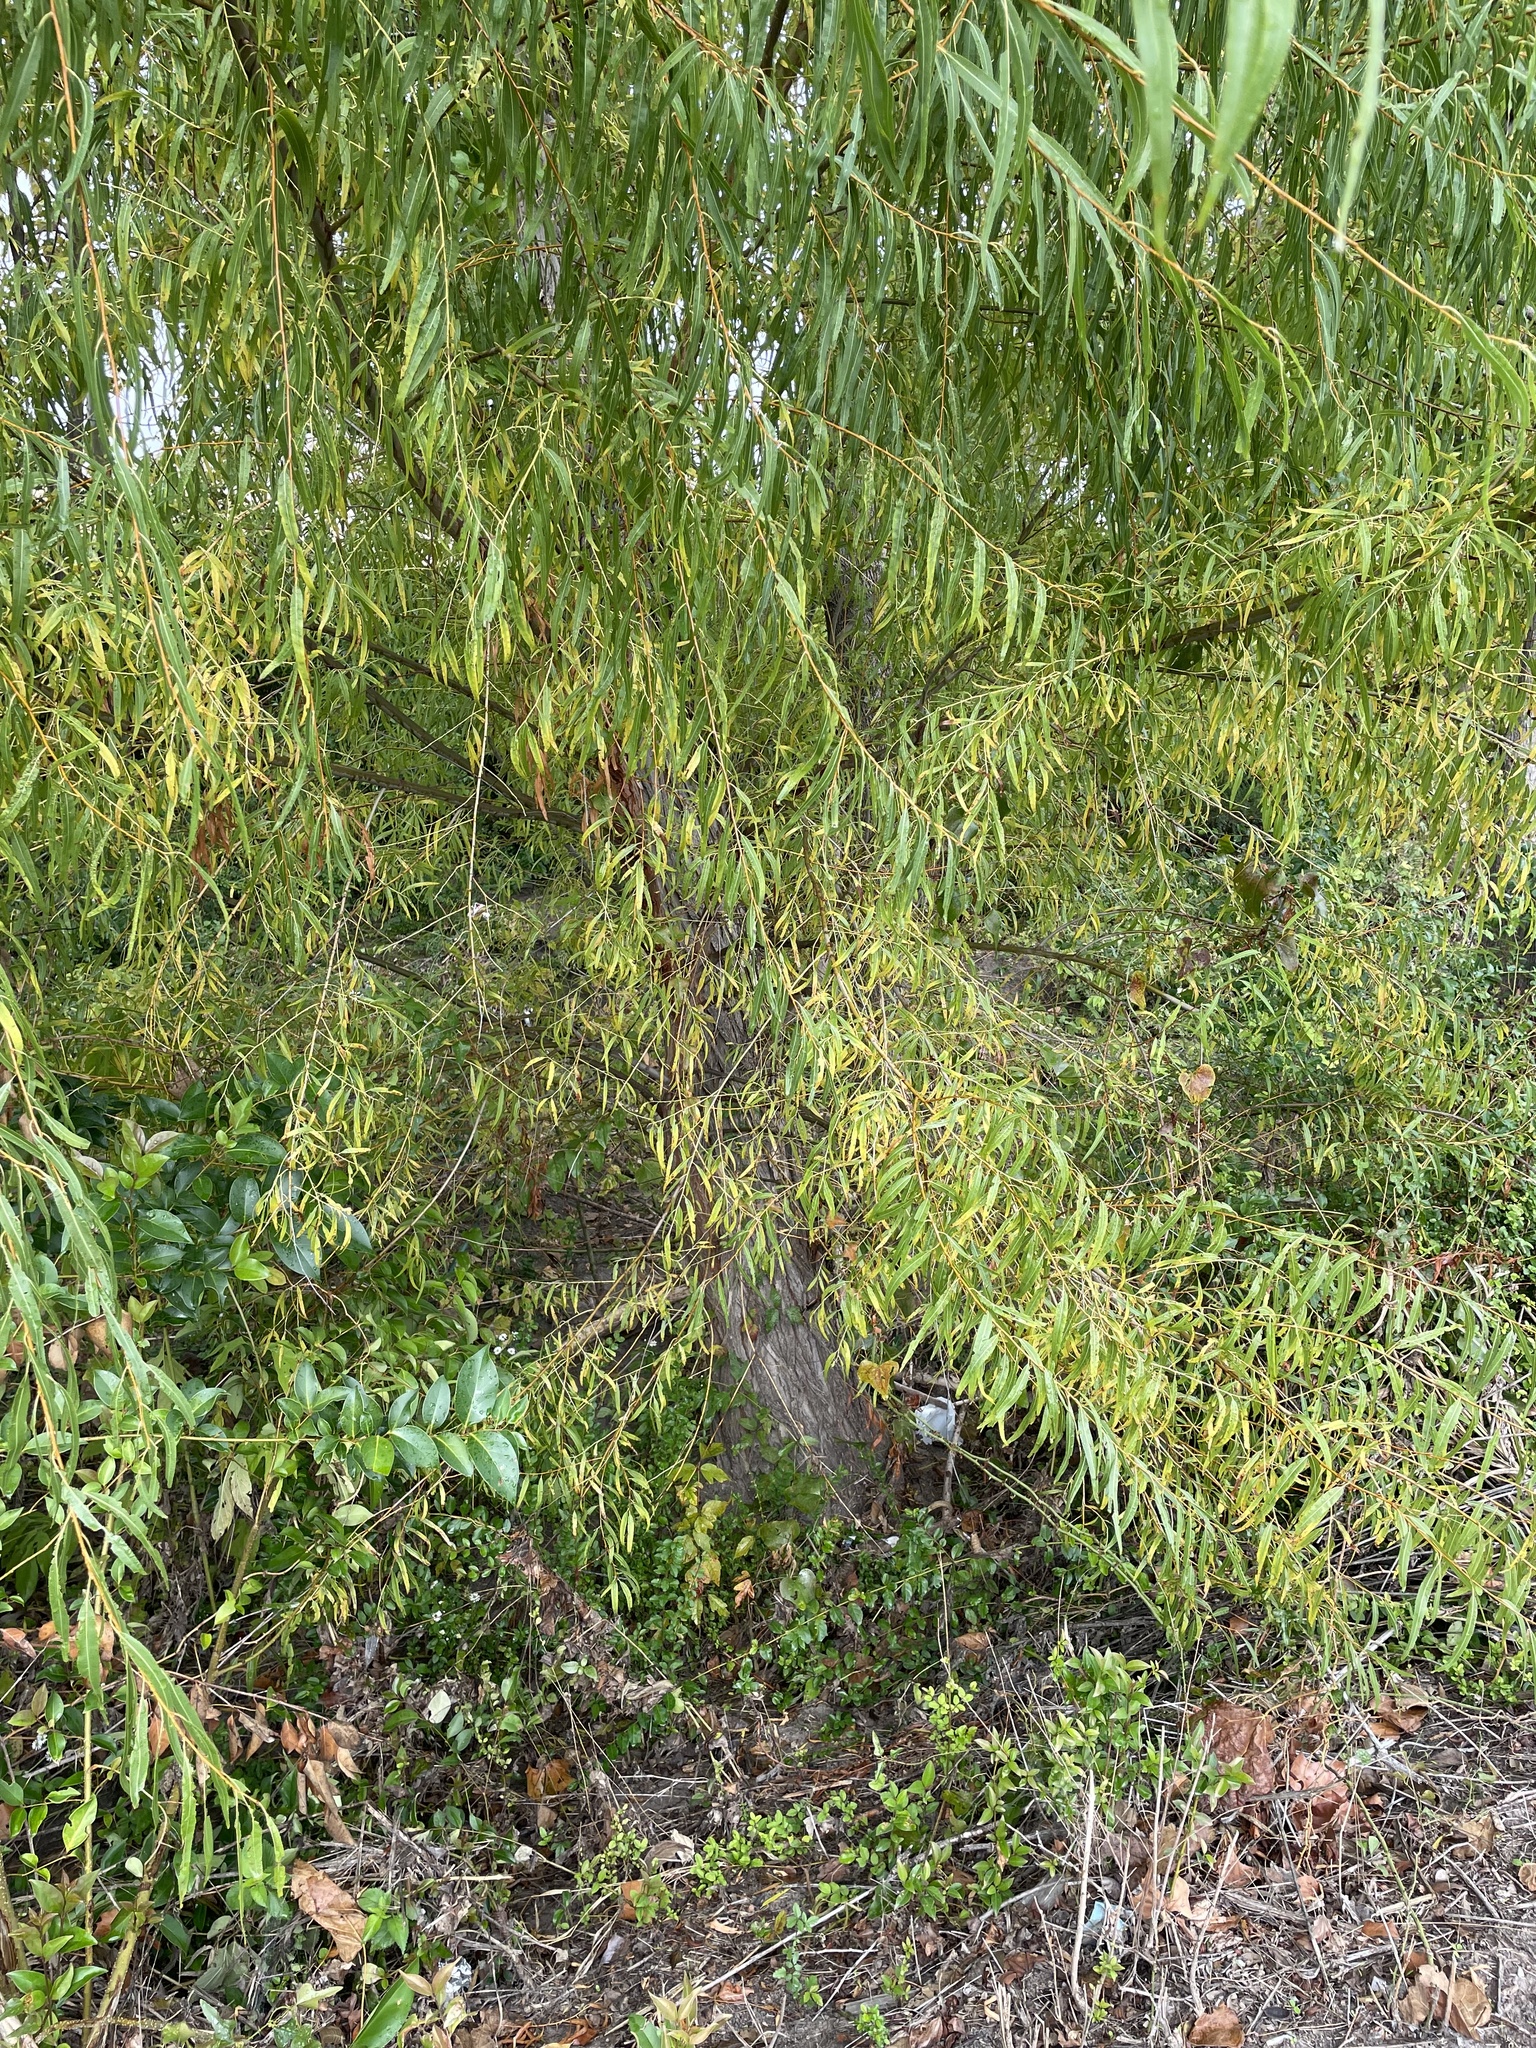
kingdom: Plantae
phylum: Tracheophyta
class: Magnoliopsida
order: Malpighiales
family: Salicaceae
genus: Salix
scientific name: Salix nigra
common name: Black willow
